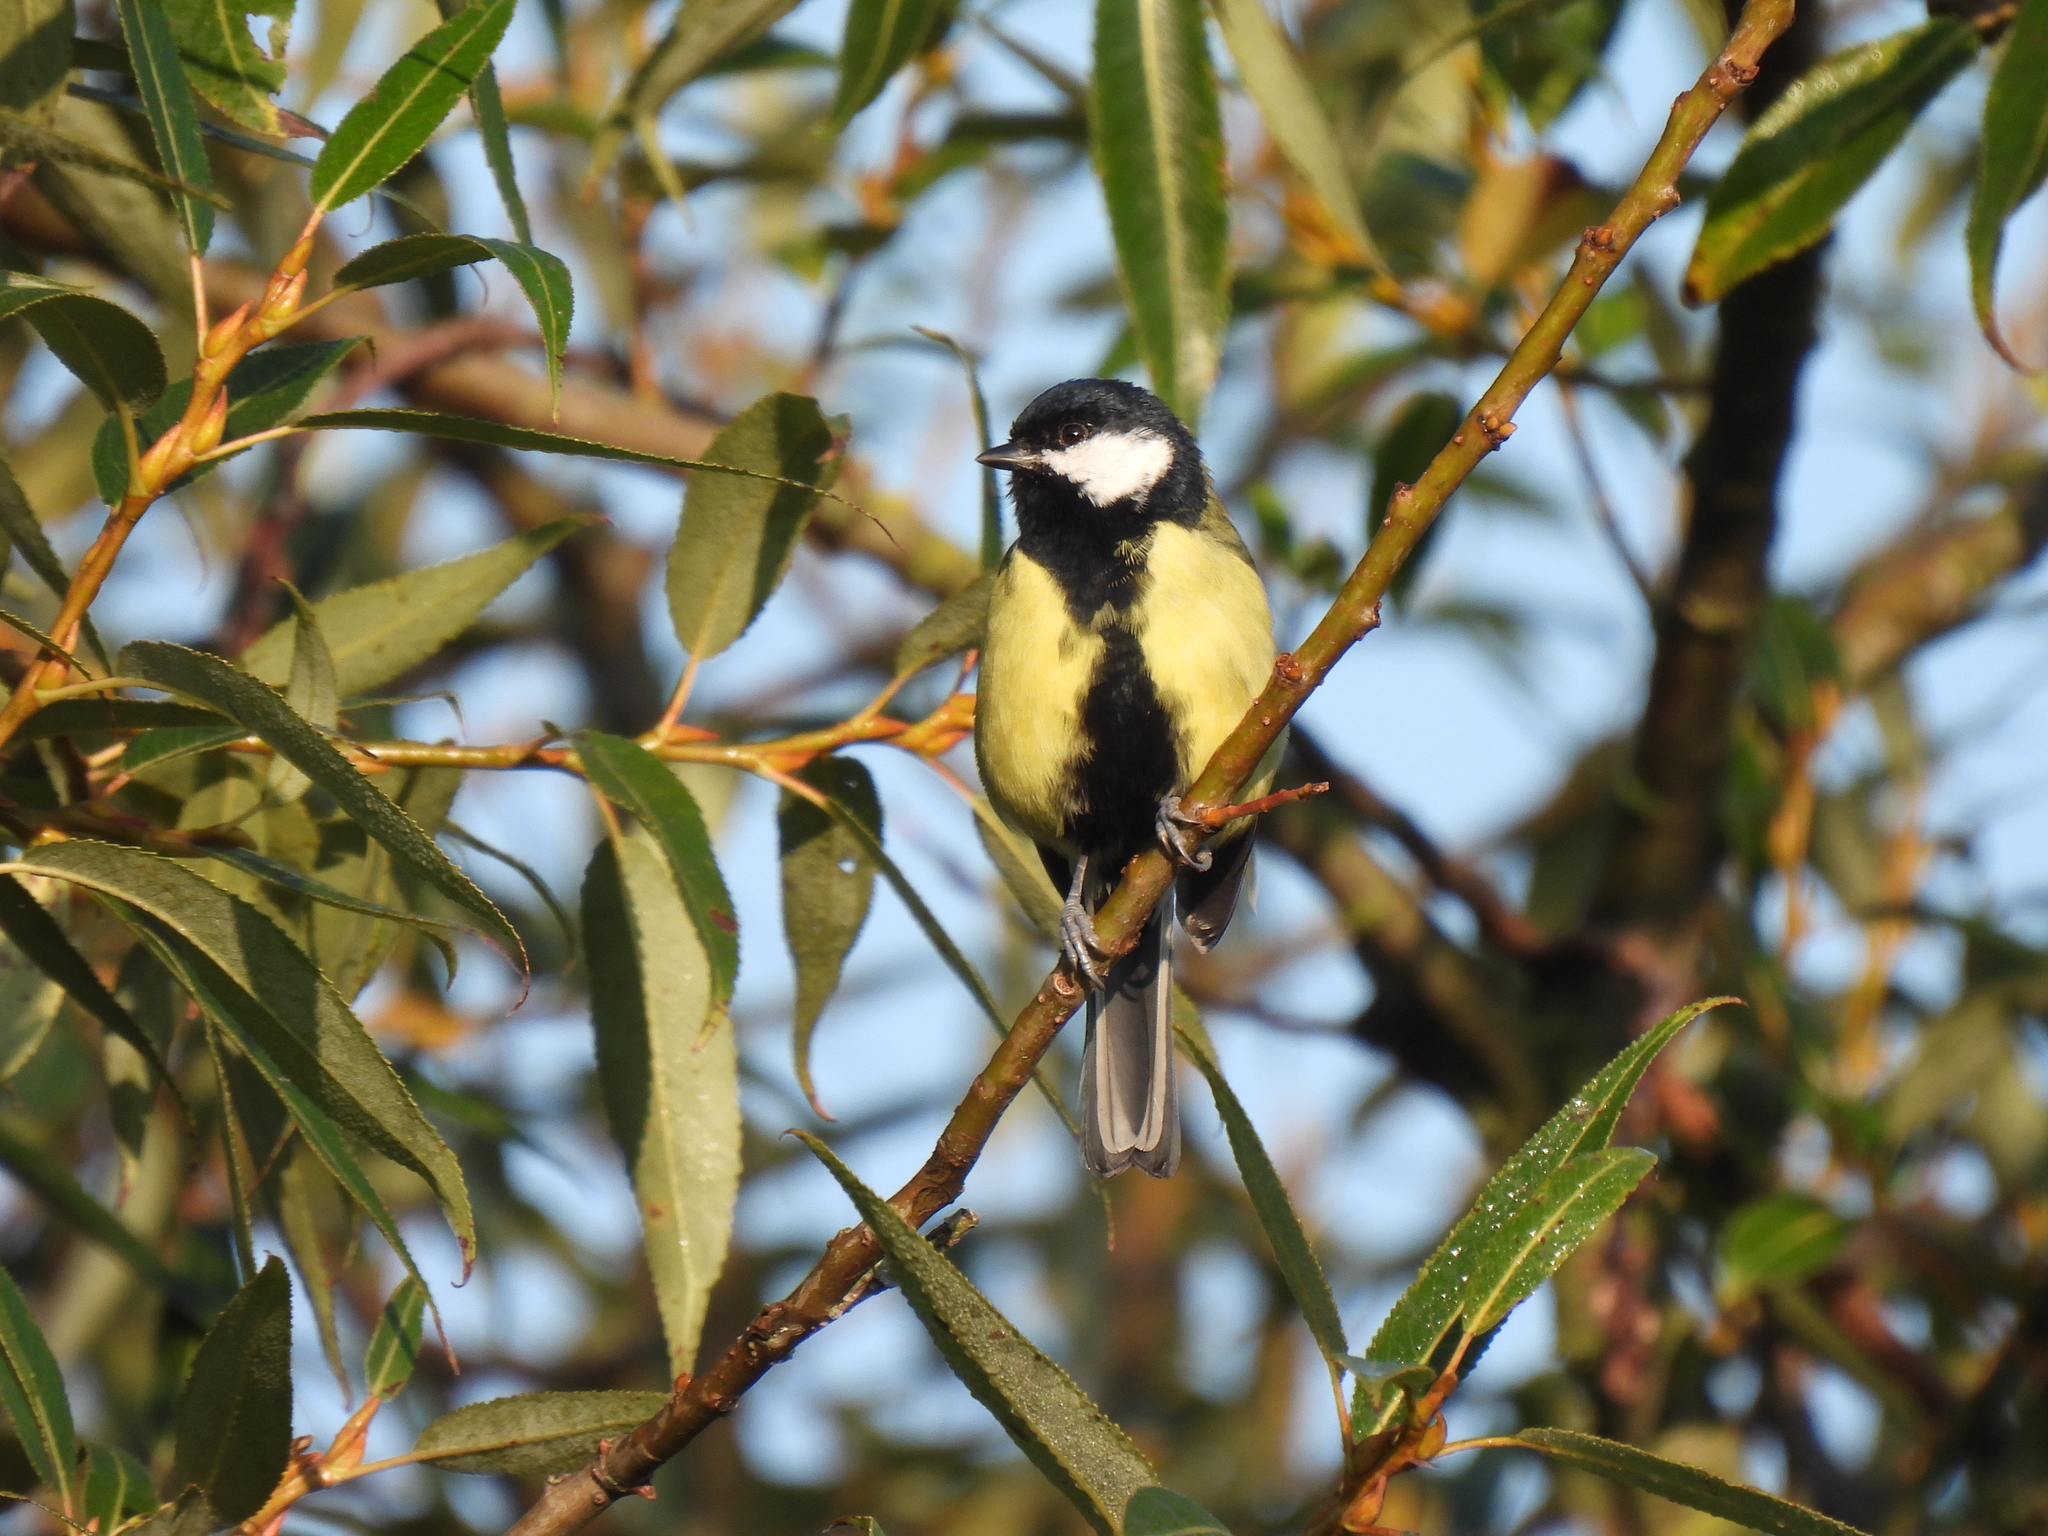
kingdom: Animalia
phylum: Chordata
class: Aves
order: Passeriformes
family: Paridae
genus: Parus
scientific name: Parus major
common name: Great tit
